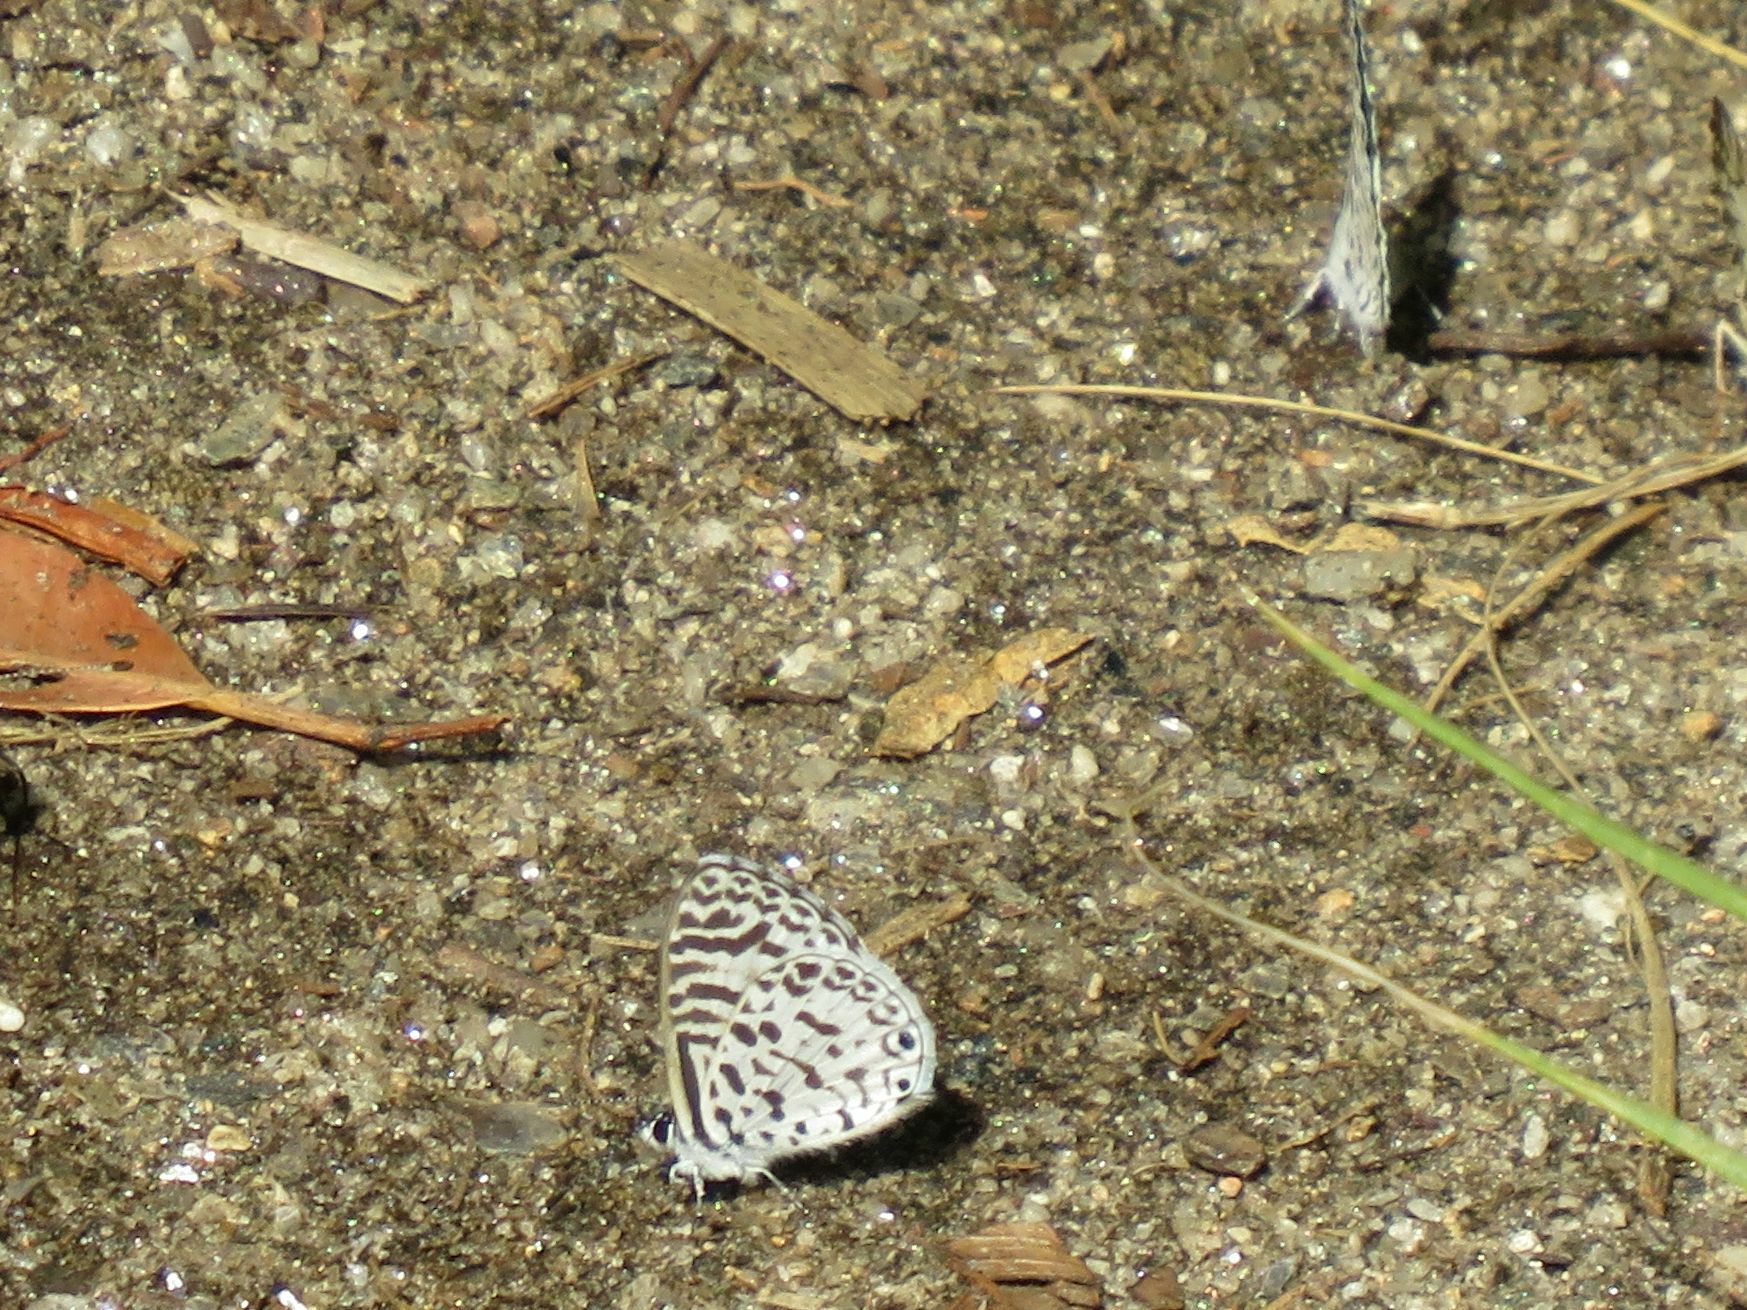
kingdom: Animalia
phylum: Arthropoda
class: Insecta
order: Lepidoptera
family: Lycaenidae
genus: Leptotes
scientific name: Leptotes cassius
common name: Cassius blue
